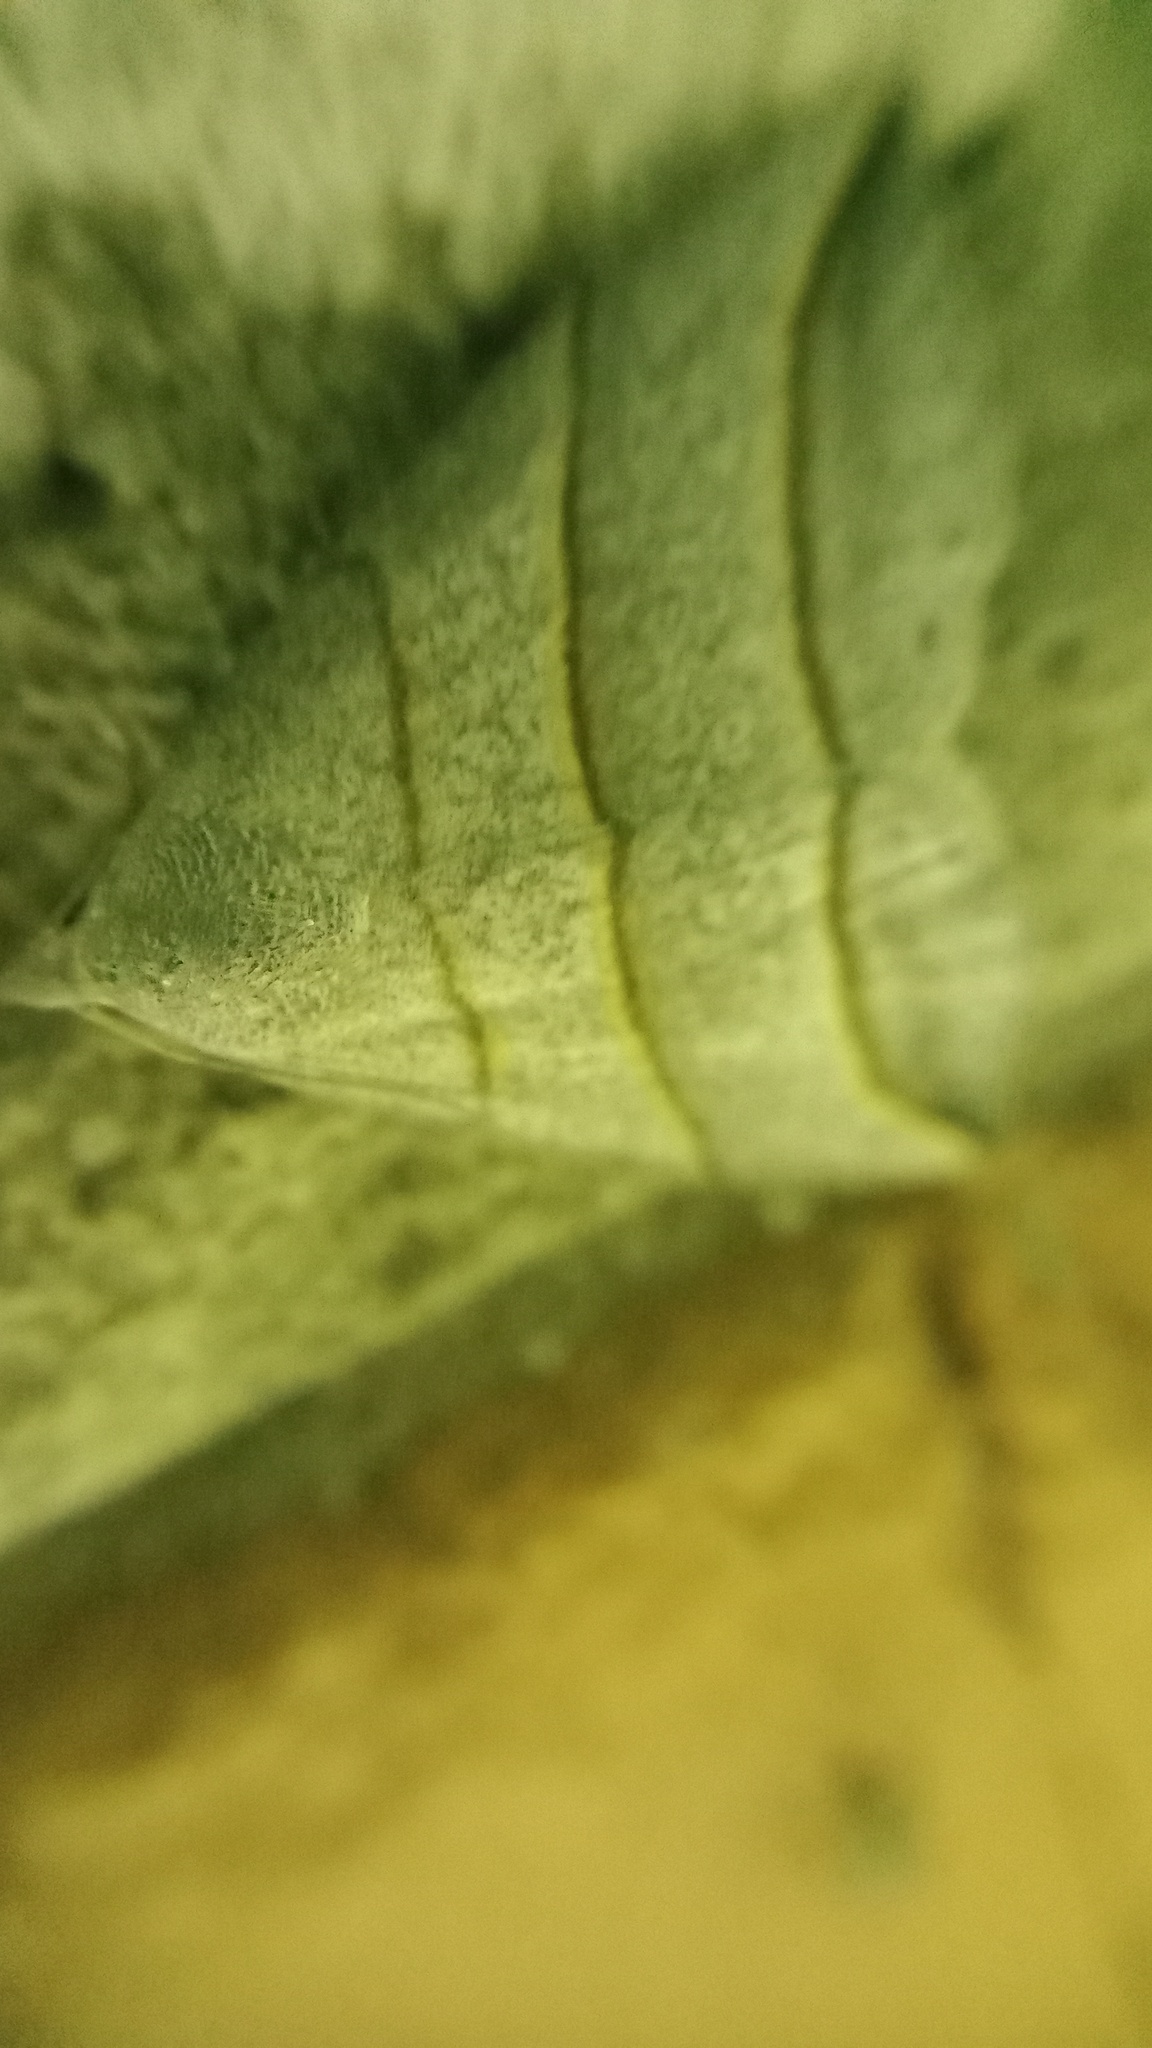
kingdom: Animalia
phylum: Arthropoda
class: Insecta
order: Lepidoptera
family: Erebidae
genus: Colobochyla
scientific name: Colobochyla salicalis
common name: Lesser belle
